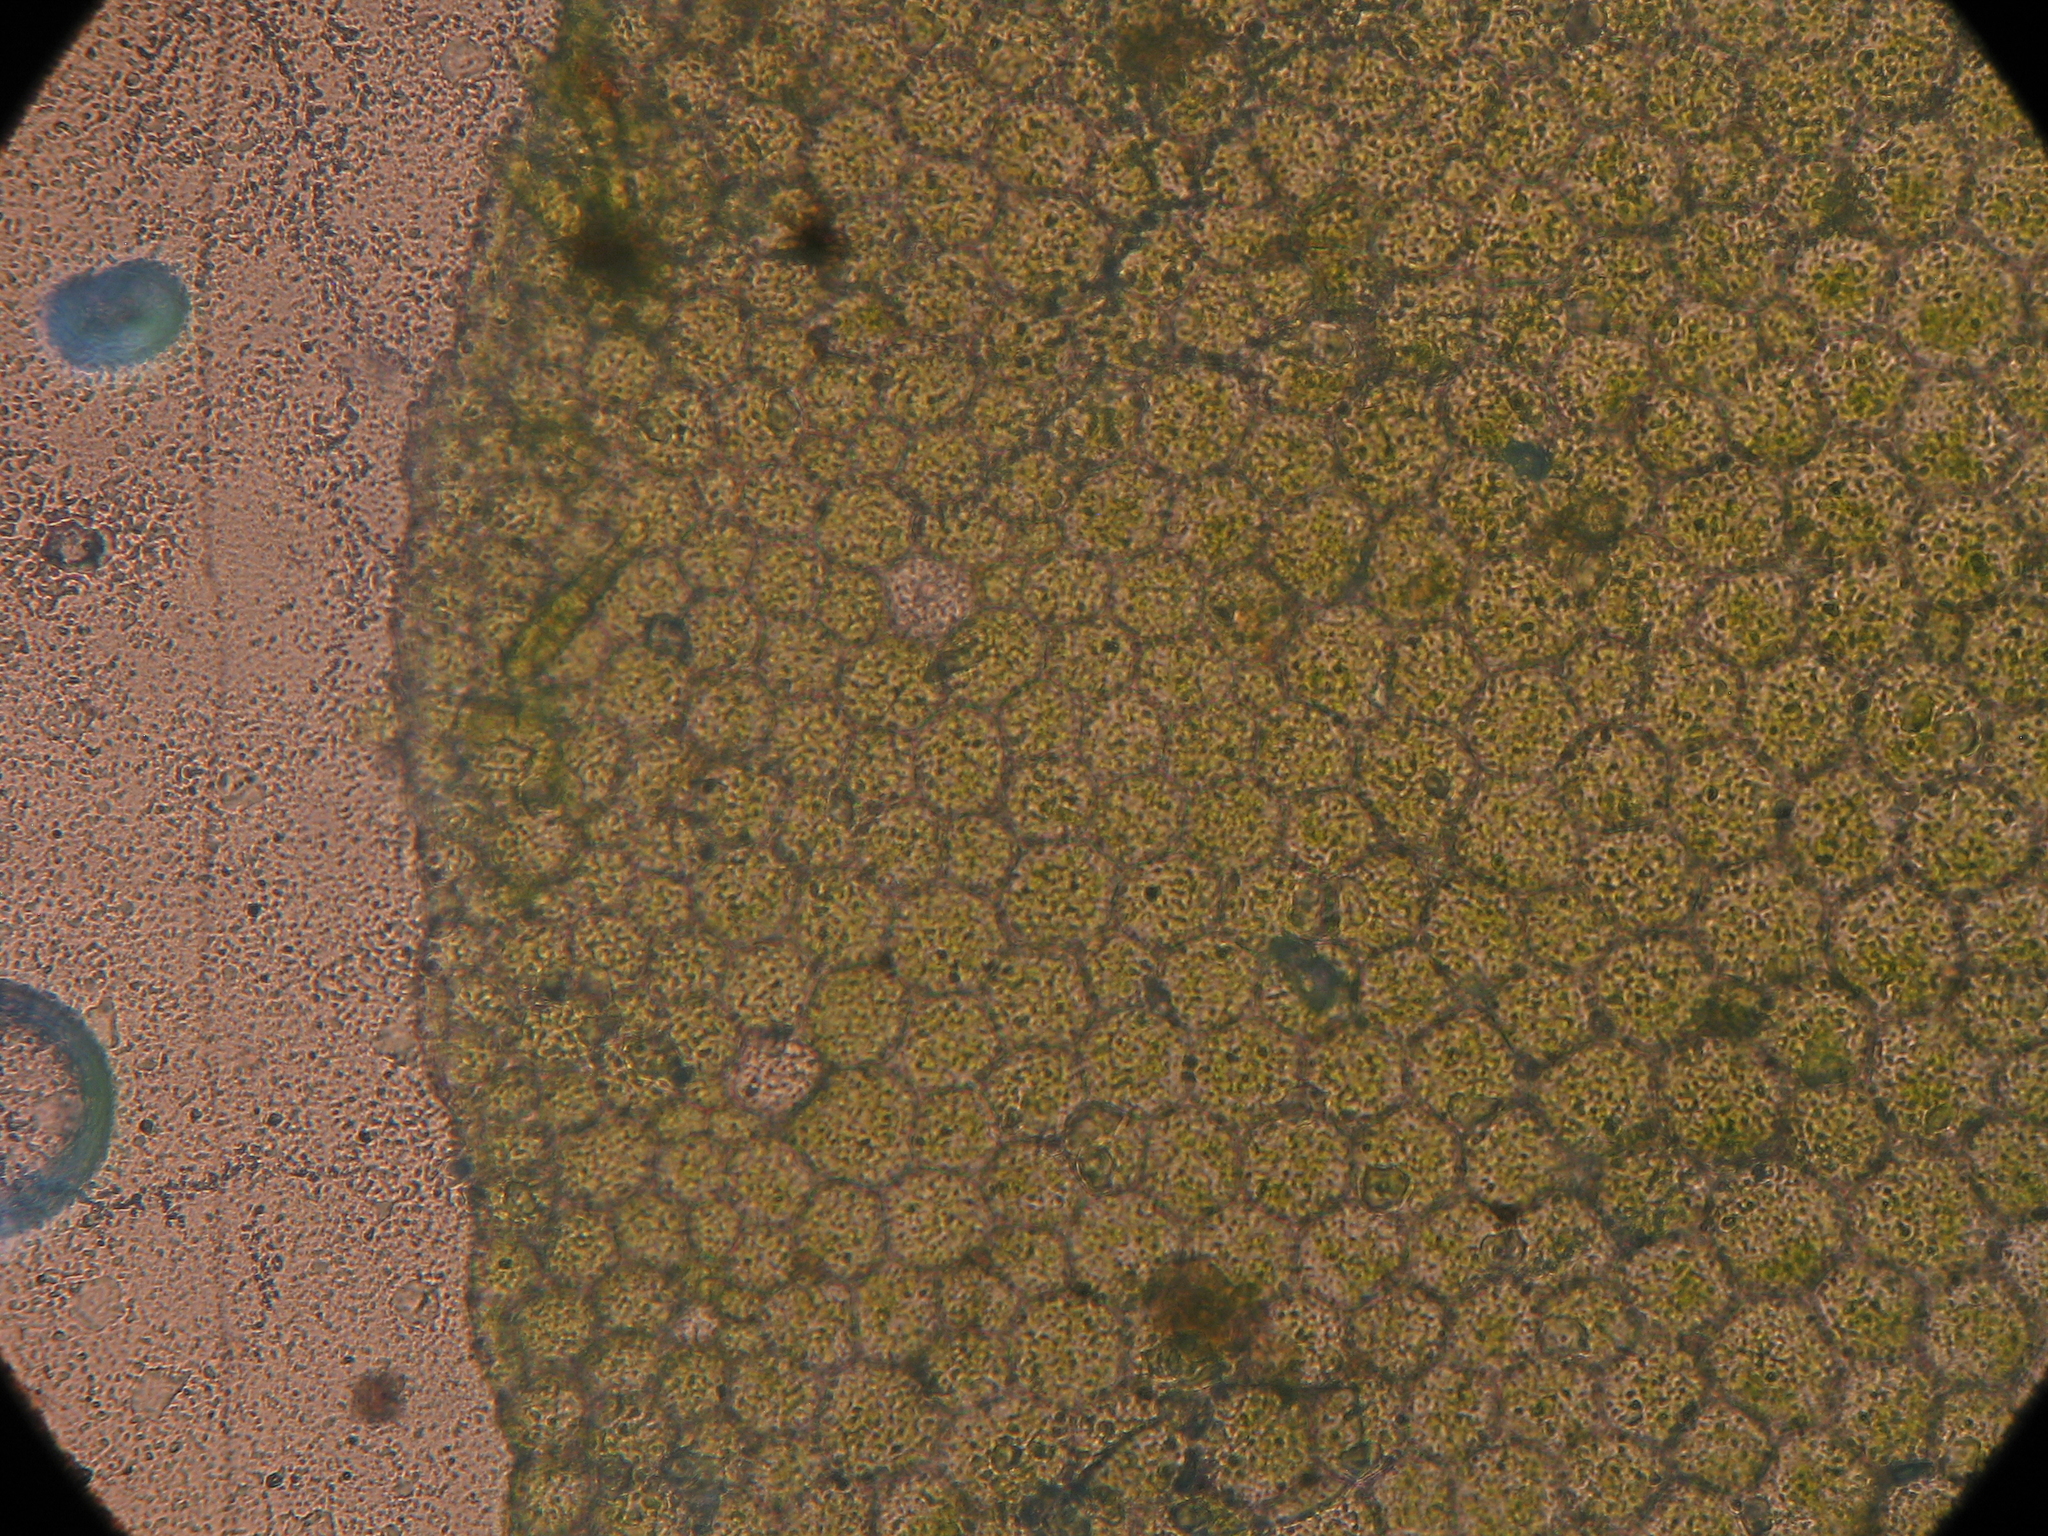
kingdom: Plantae
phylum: Bryophyta
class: Bryopsida
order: Hookeriales
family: Daltoniaceae
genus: Achrophyllum
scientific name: Achrophyllum quadrifarium
